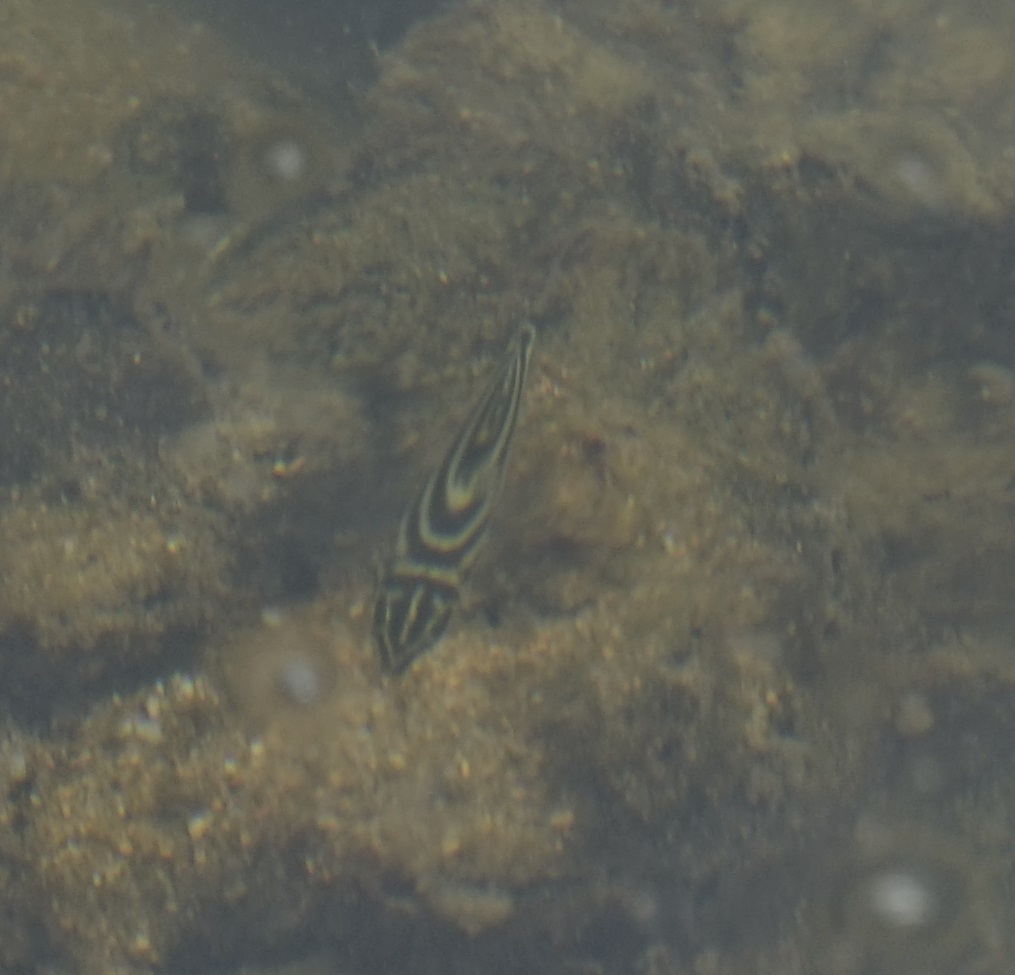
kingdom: Animalia
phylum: Chordata
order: Perciformes
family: Kyphosidae
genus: Microcanthus
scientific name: Microcanthus joyceae
